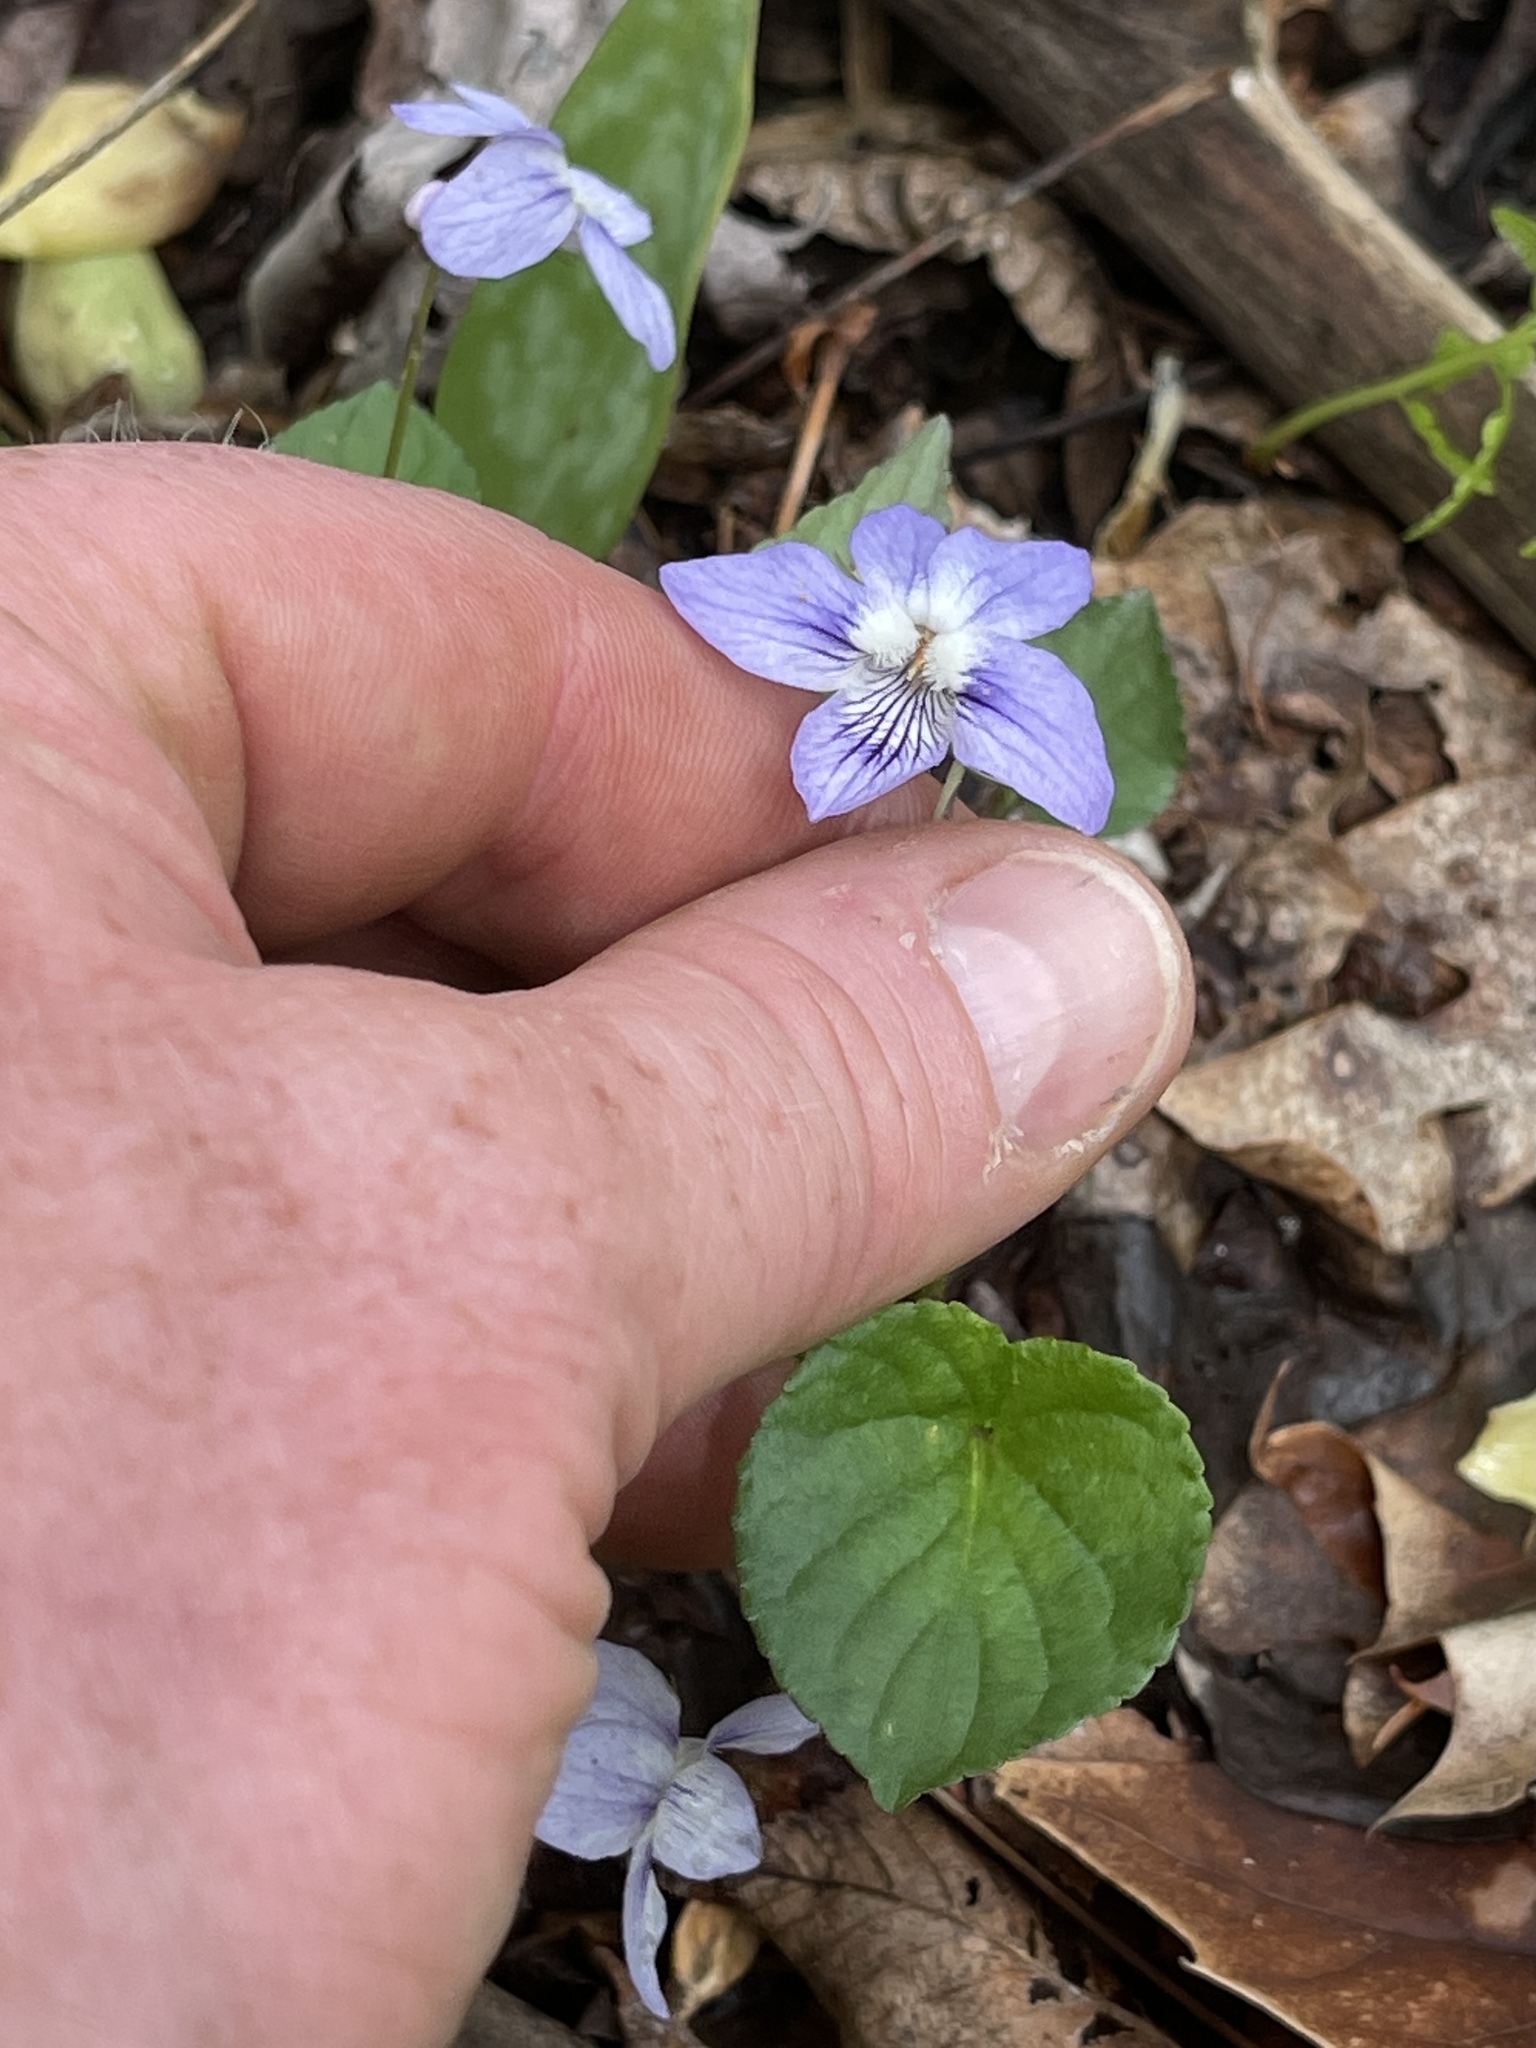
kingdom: Plantae
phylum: Tracheophyta
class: Magnoliopsida
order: Malpighiales
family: Violaceae
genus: Viola
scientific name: Viola labradorica
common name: Labrador violet
